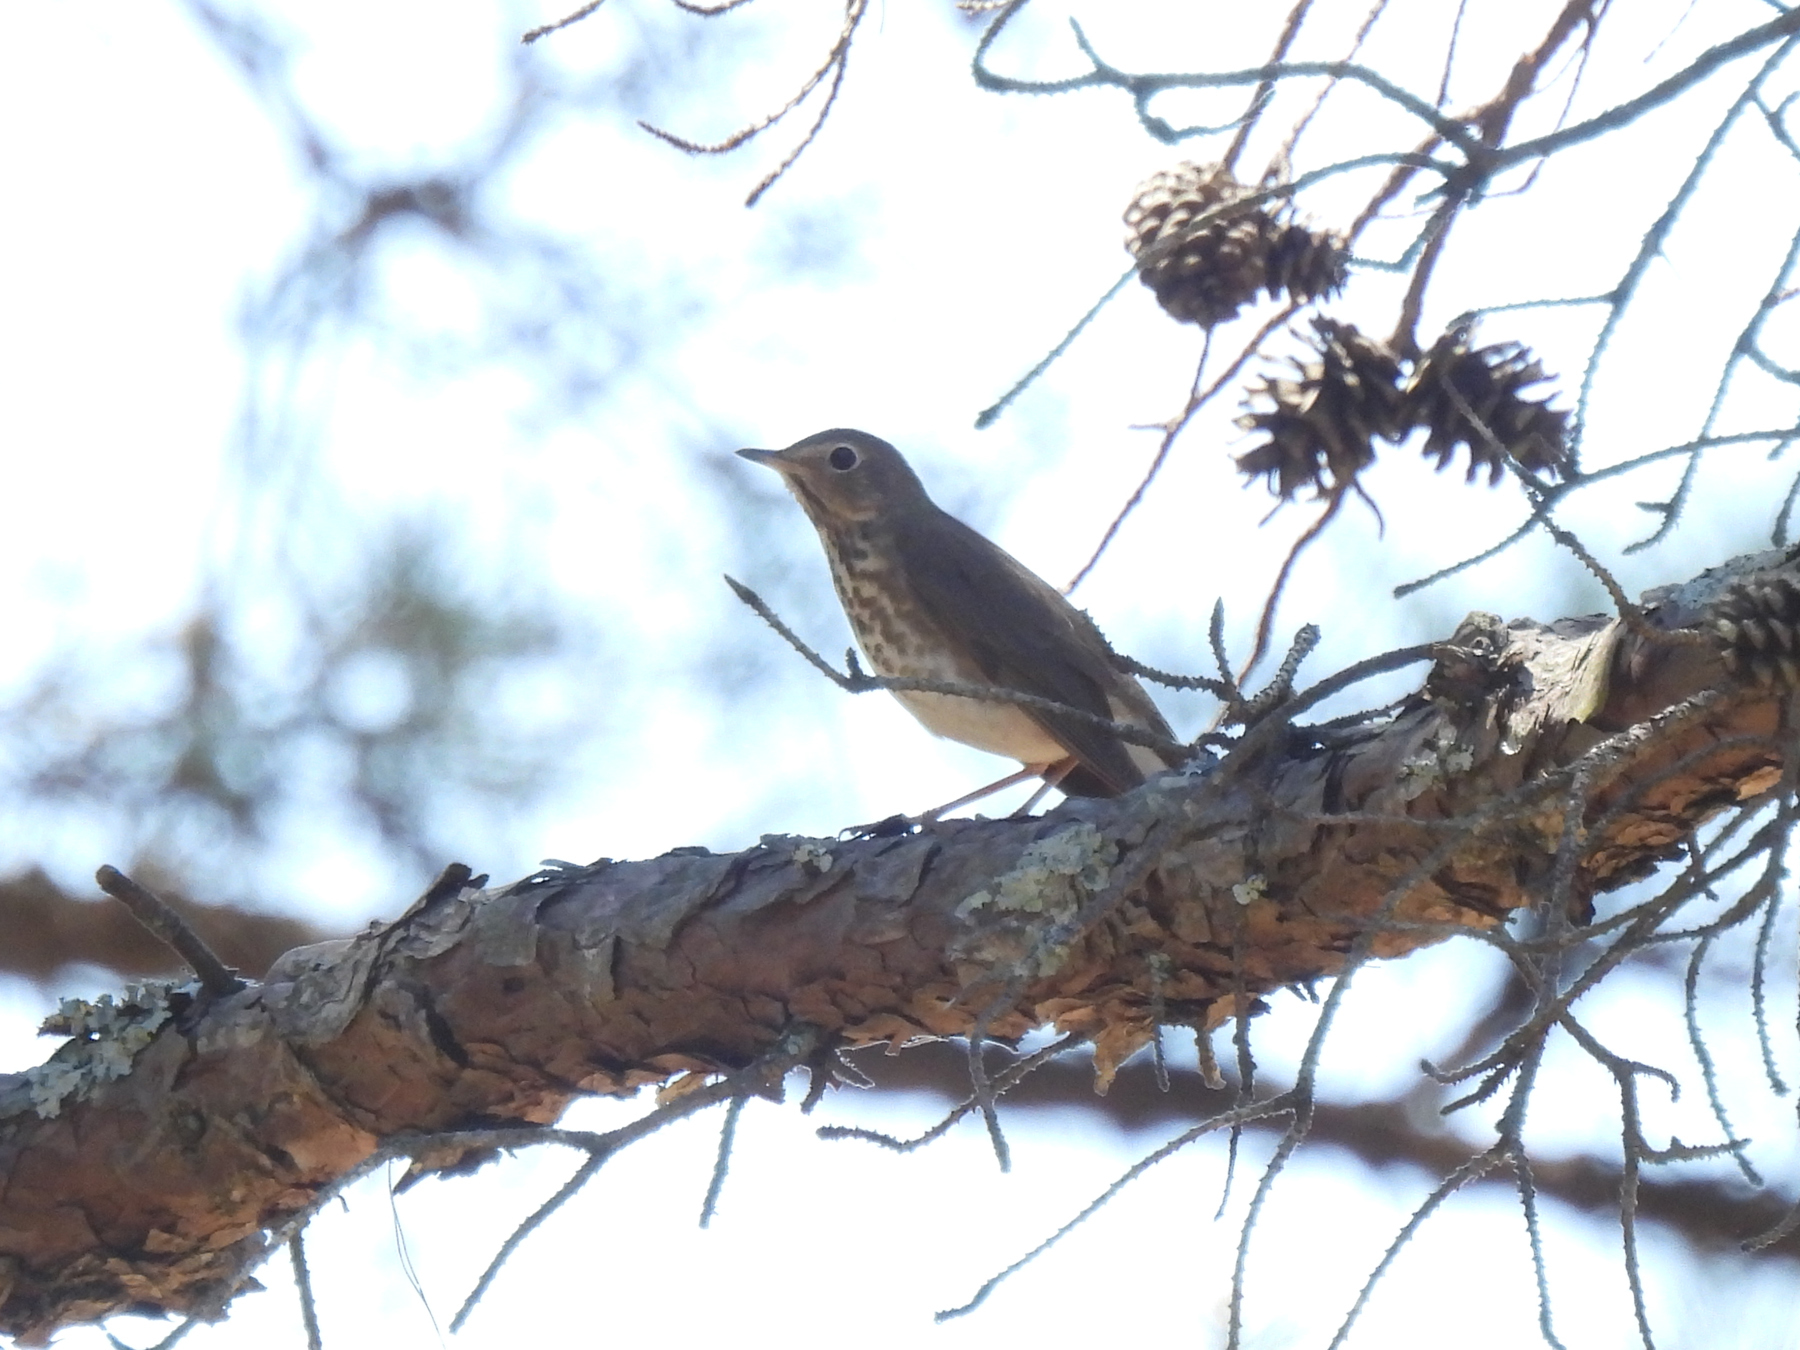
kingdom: Animalia
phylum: Chordata
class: Aves
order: Passeriformes
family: Turdidae
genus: Catharus
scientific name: Catharus ustulatus
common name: Swainson's thrush
